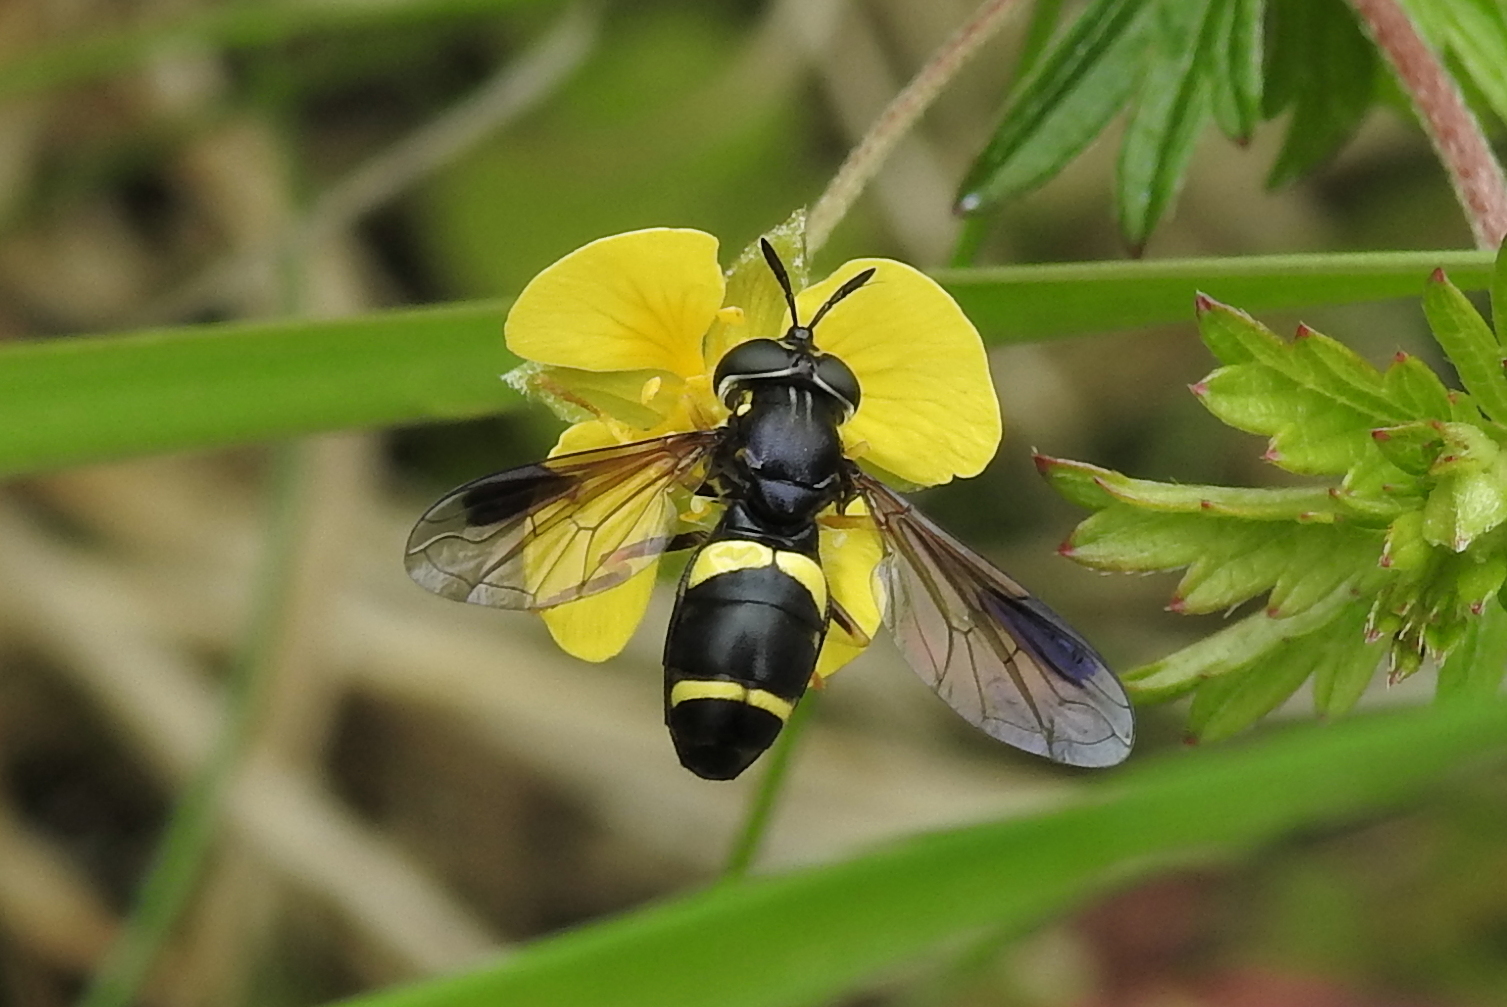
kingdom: Animalia
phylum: Arthropoda
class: Insecta
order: Diptera
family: Syrphidae
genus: Chrysotoxum
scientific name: Chrysotoxum bicincta
